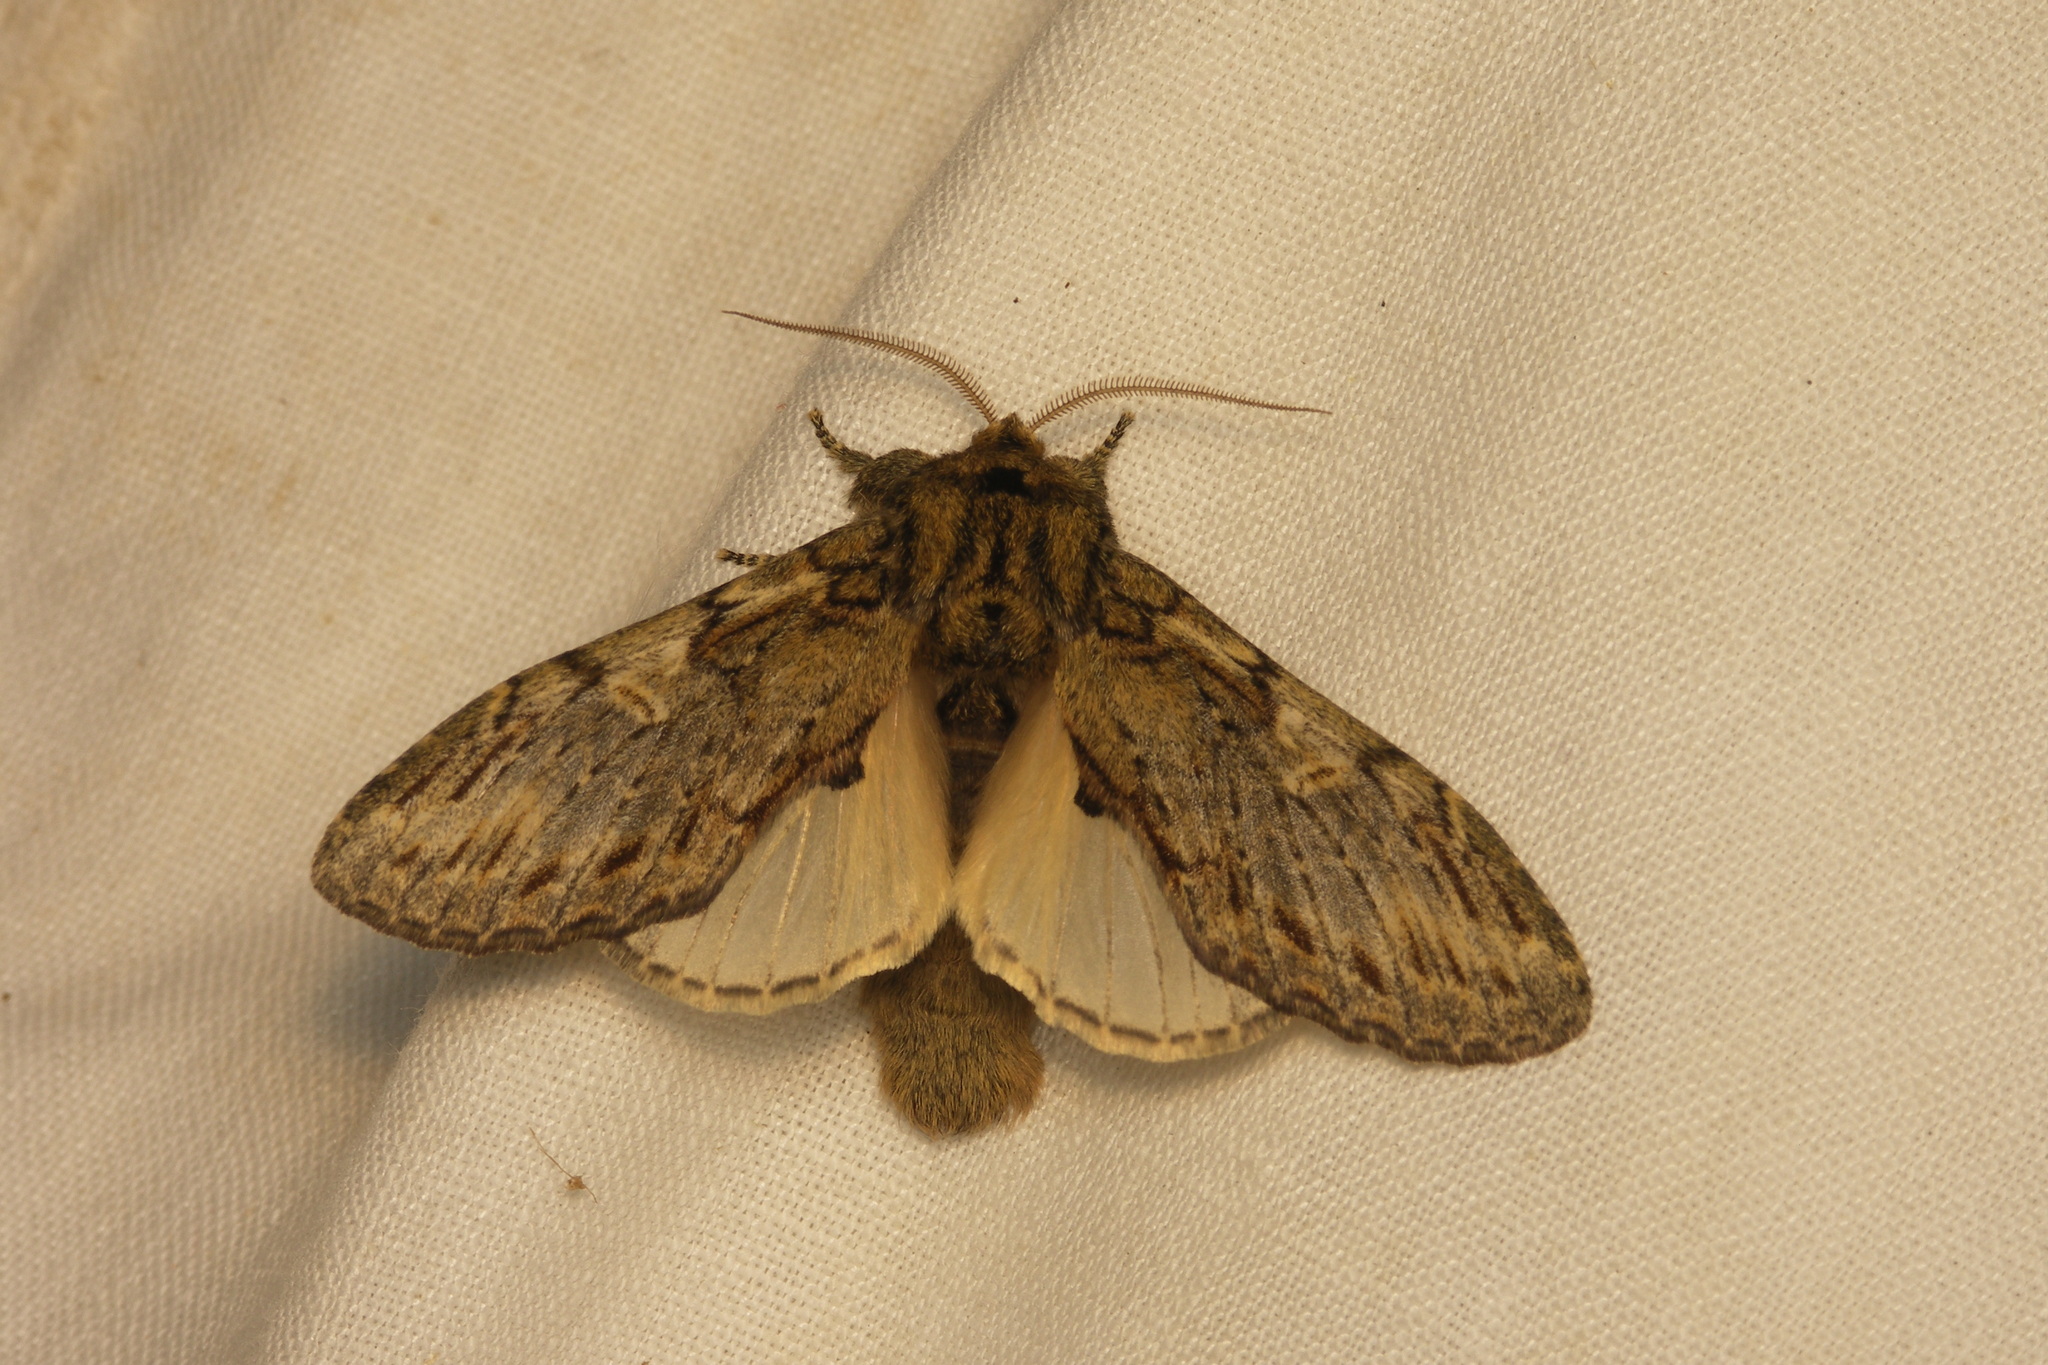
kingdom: Animalia
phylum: Arthropoda
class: Insecta
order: Lepidoptera
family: Notodontidae
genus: Peridea
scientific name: Peridea anceps
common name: Great prominent
